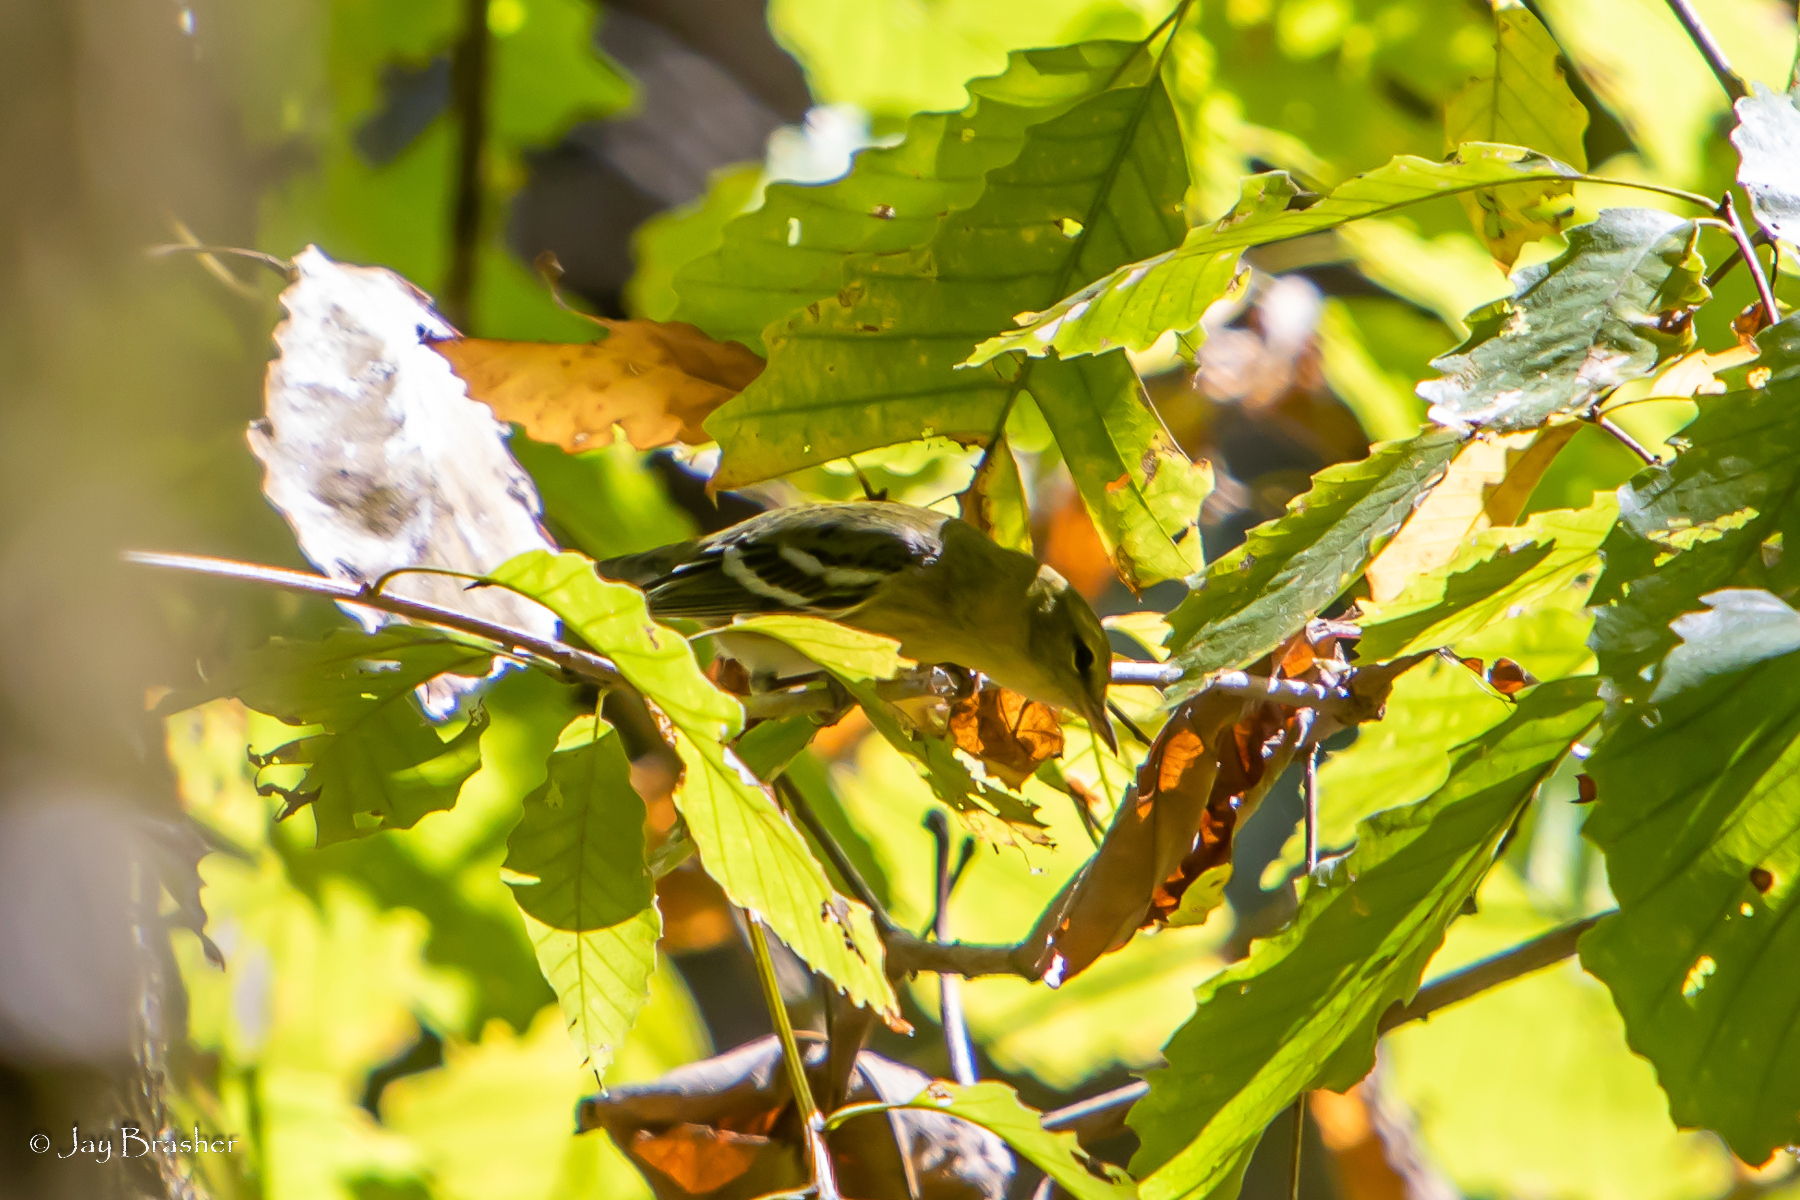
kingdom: Animalia
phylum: Chordata
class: Aves
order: Passeriformes
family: Parulidae
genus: Setophaga
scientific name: Setophaga castanea
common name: Bay-breasted warbler
